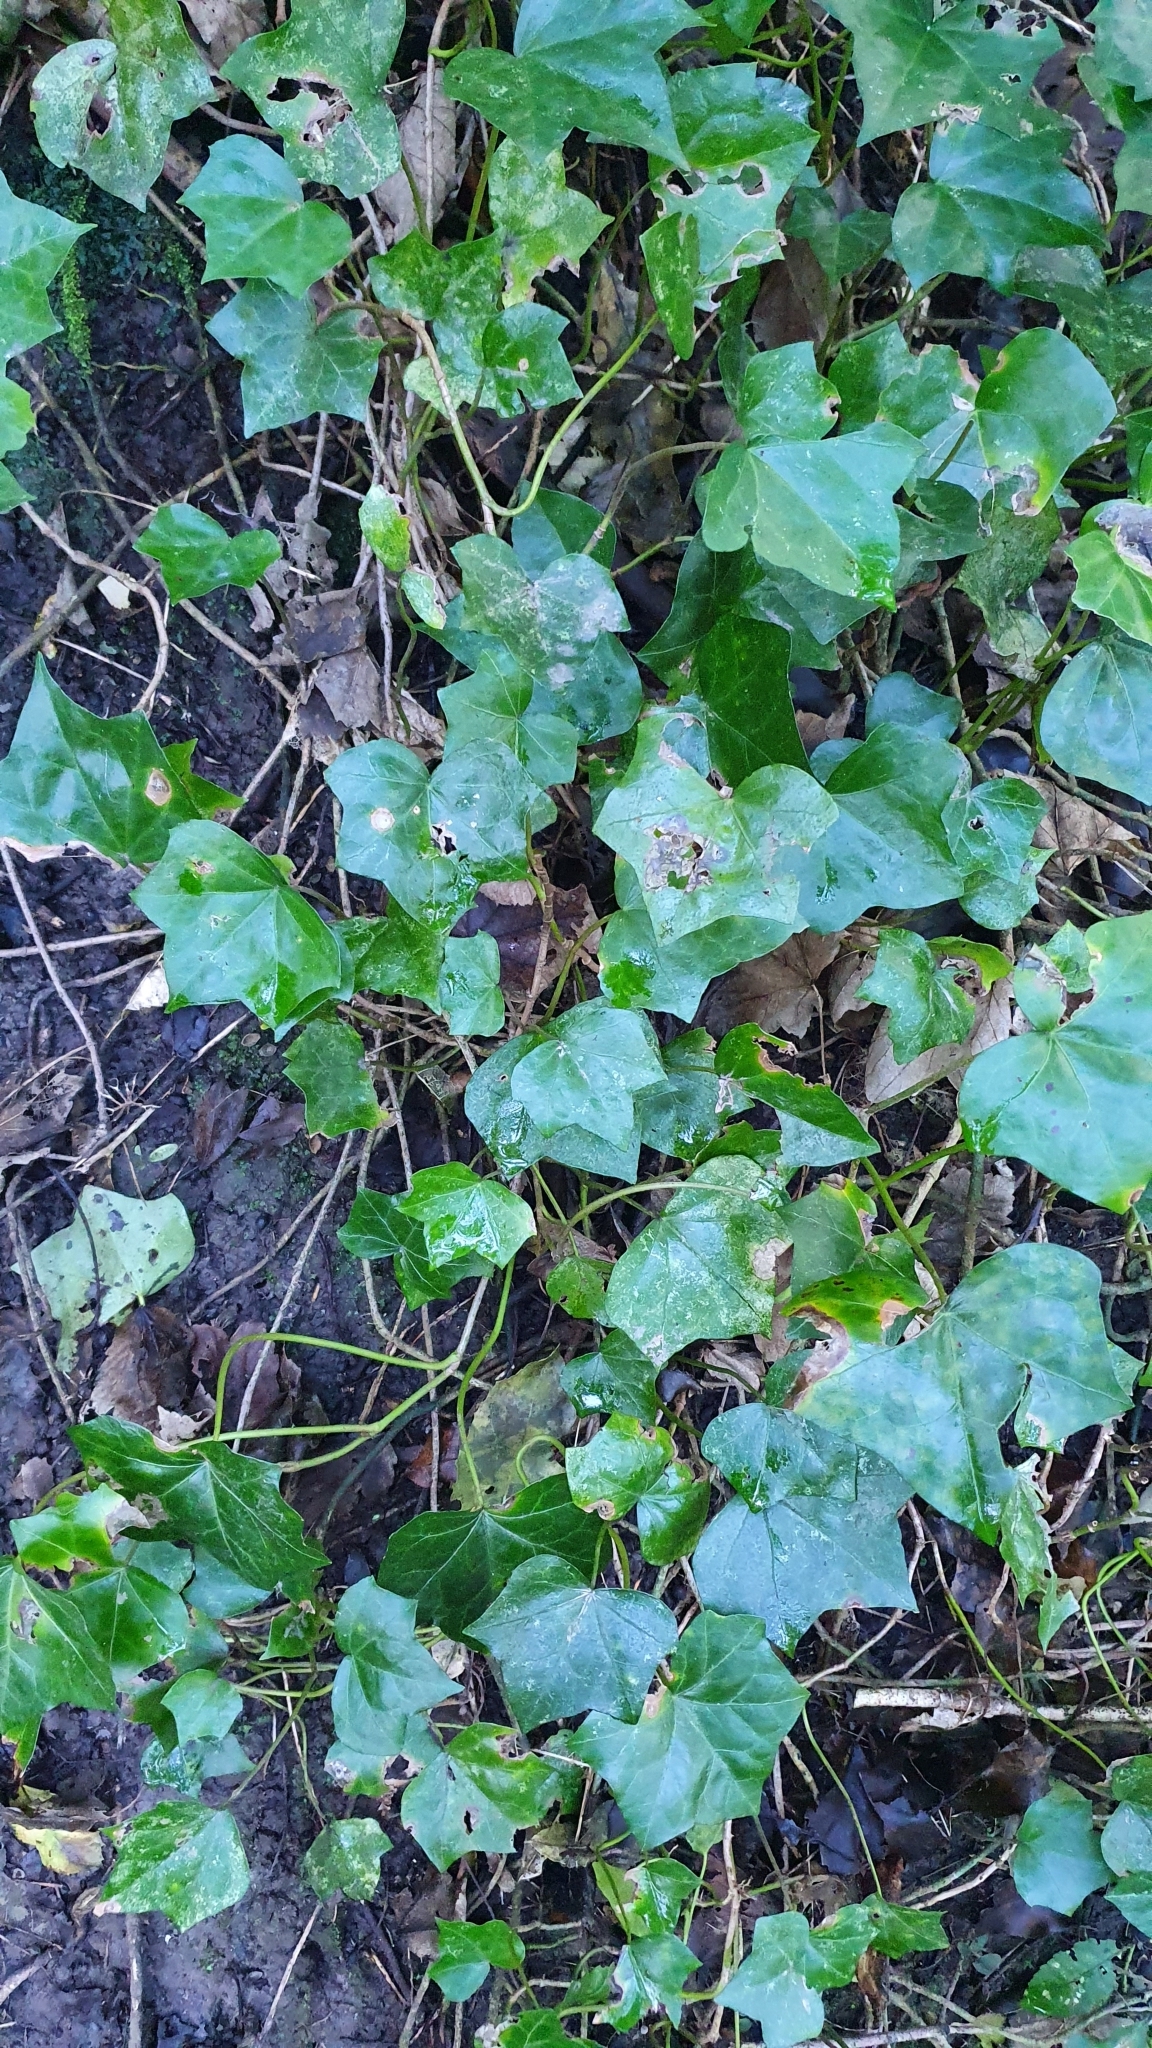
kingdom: Plantae
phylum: Tracheophyta
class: Magnoliopsida
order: Apiales
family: Araliaceae
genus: Hedera
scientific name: Hedera helix
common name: Ivy
